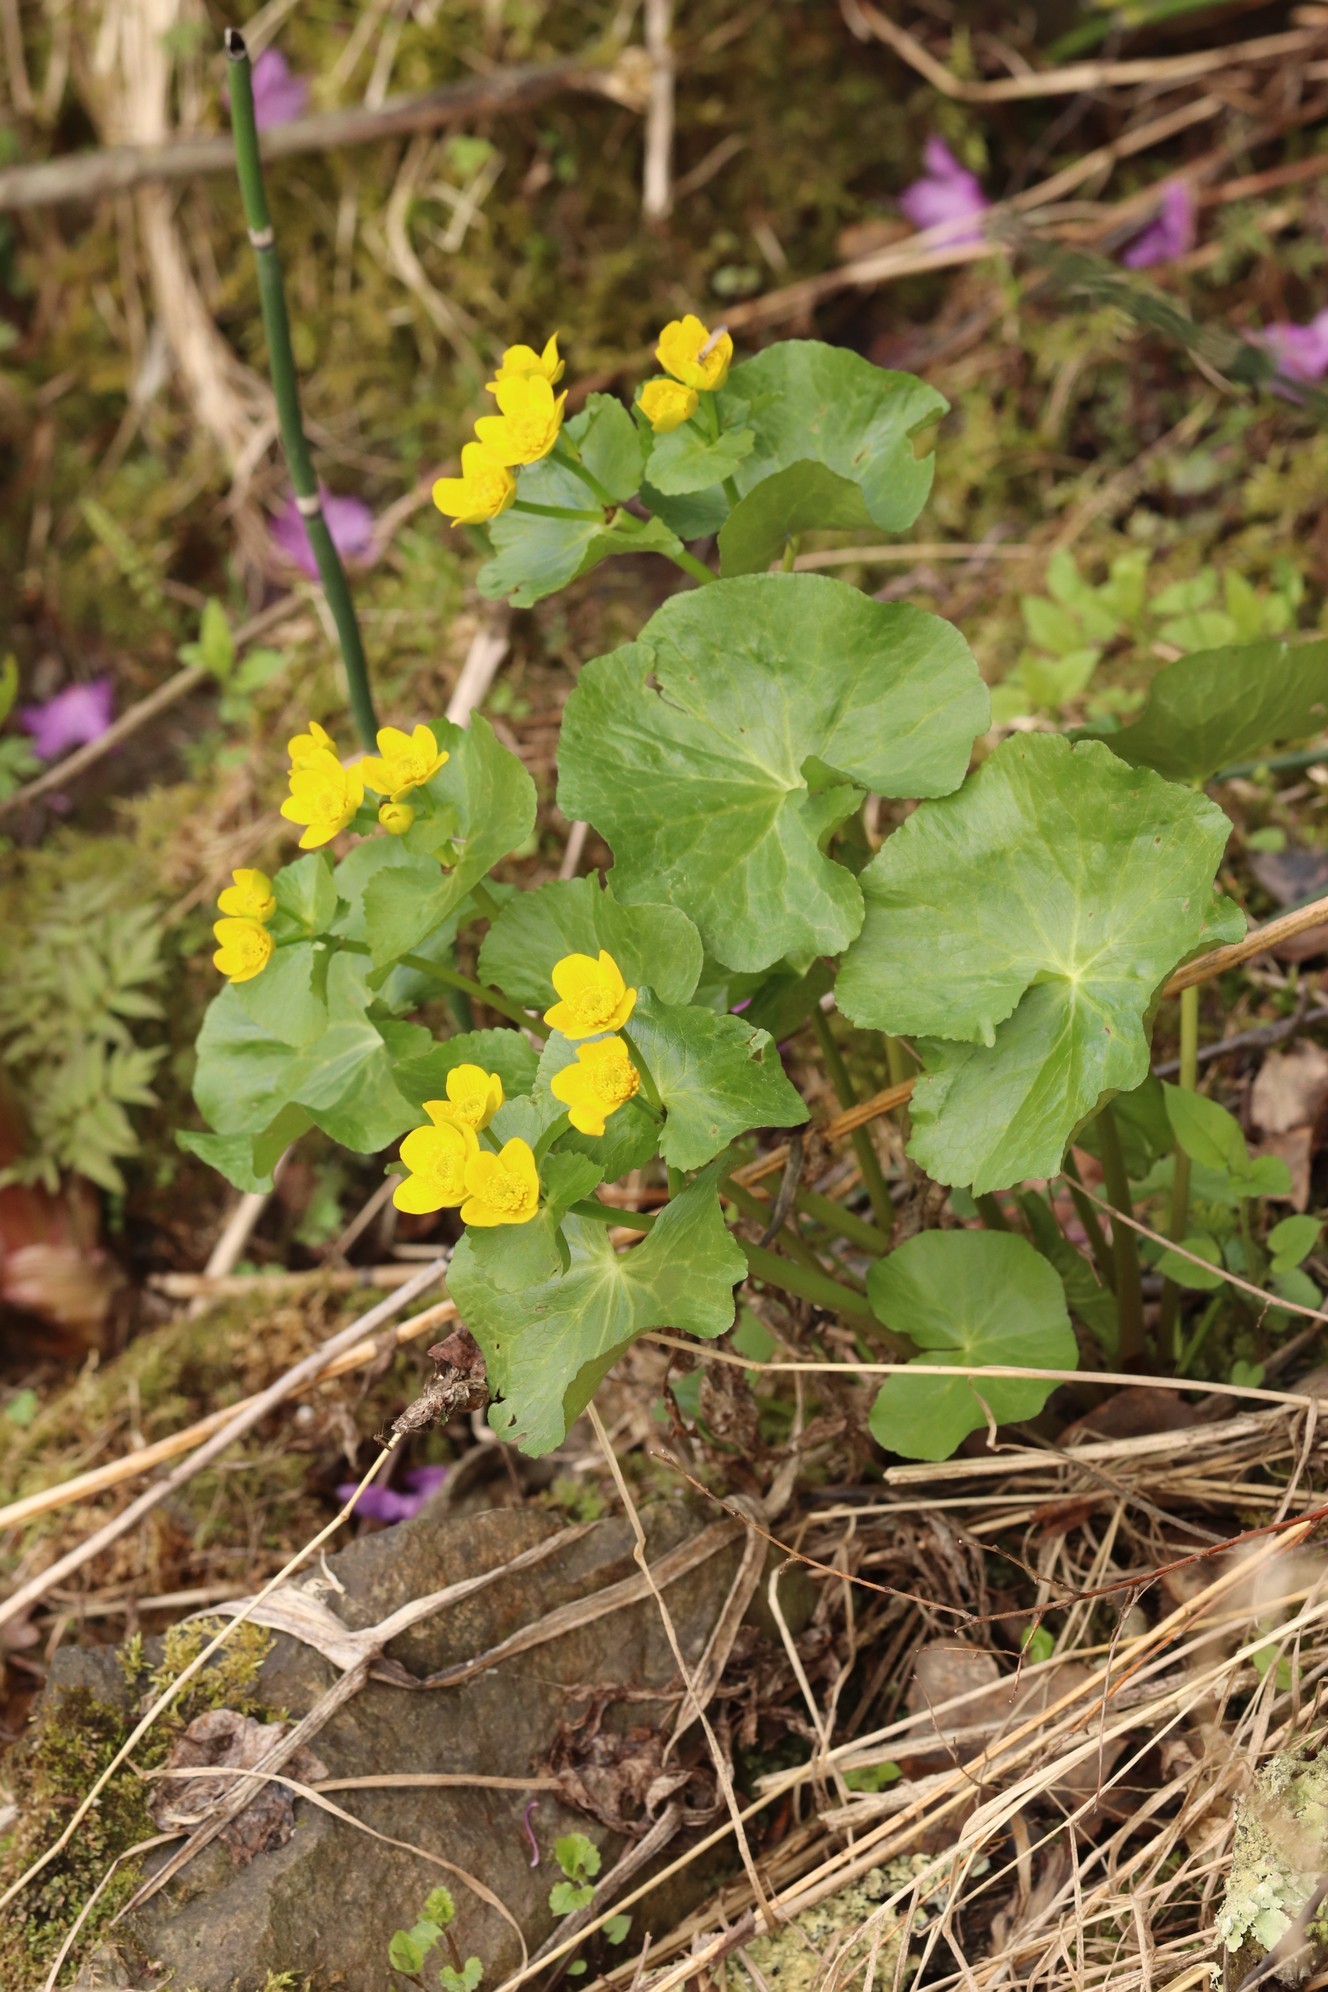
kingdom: Plantae
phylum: Tracheophyta
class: Magnoliopsida
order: Ranunculales
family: Ranunculaceae
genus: Caltha
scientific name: Caltha palustris
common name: Marsh marigold
